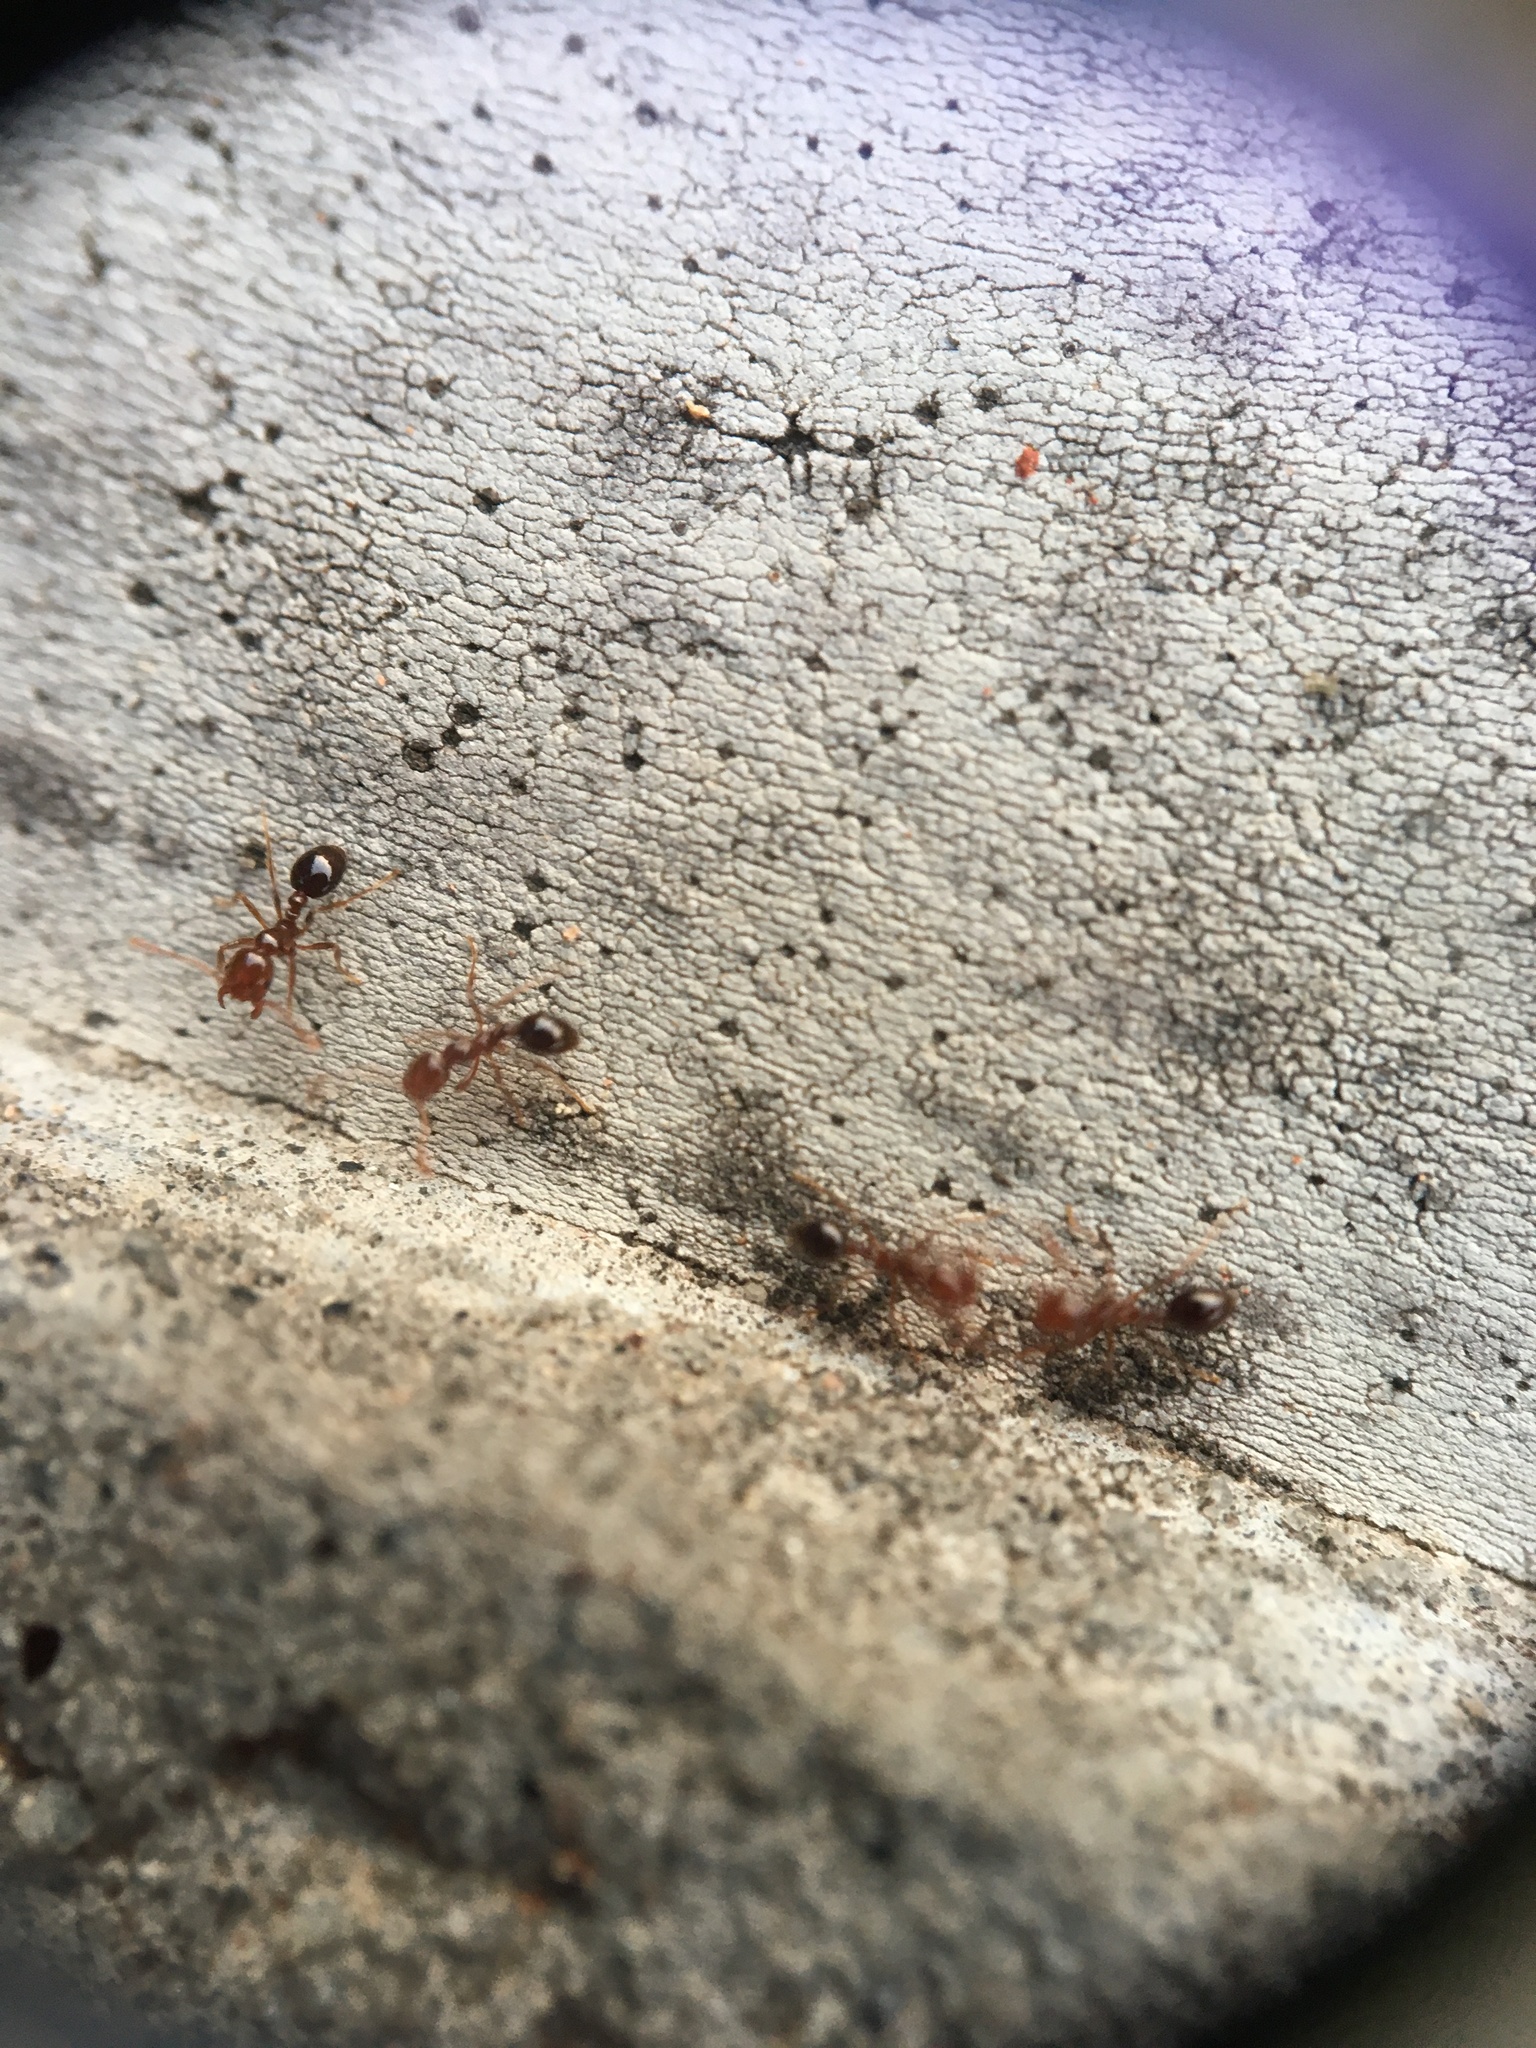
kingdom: Animalia
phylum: Arthropoda
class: Insecta
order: Hymenoptera
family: Formicidae
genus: Solenopsis
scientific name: Solenopsis invicta
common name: Red imported fire ant
